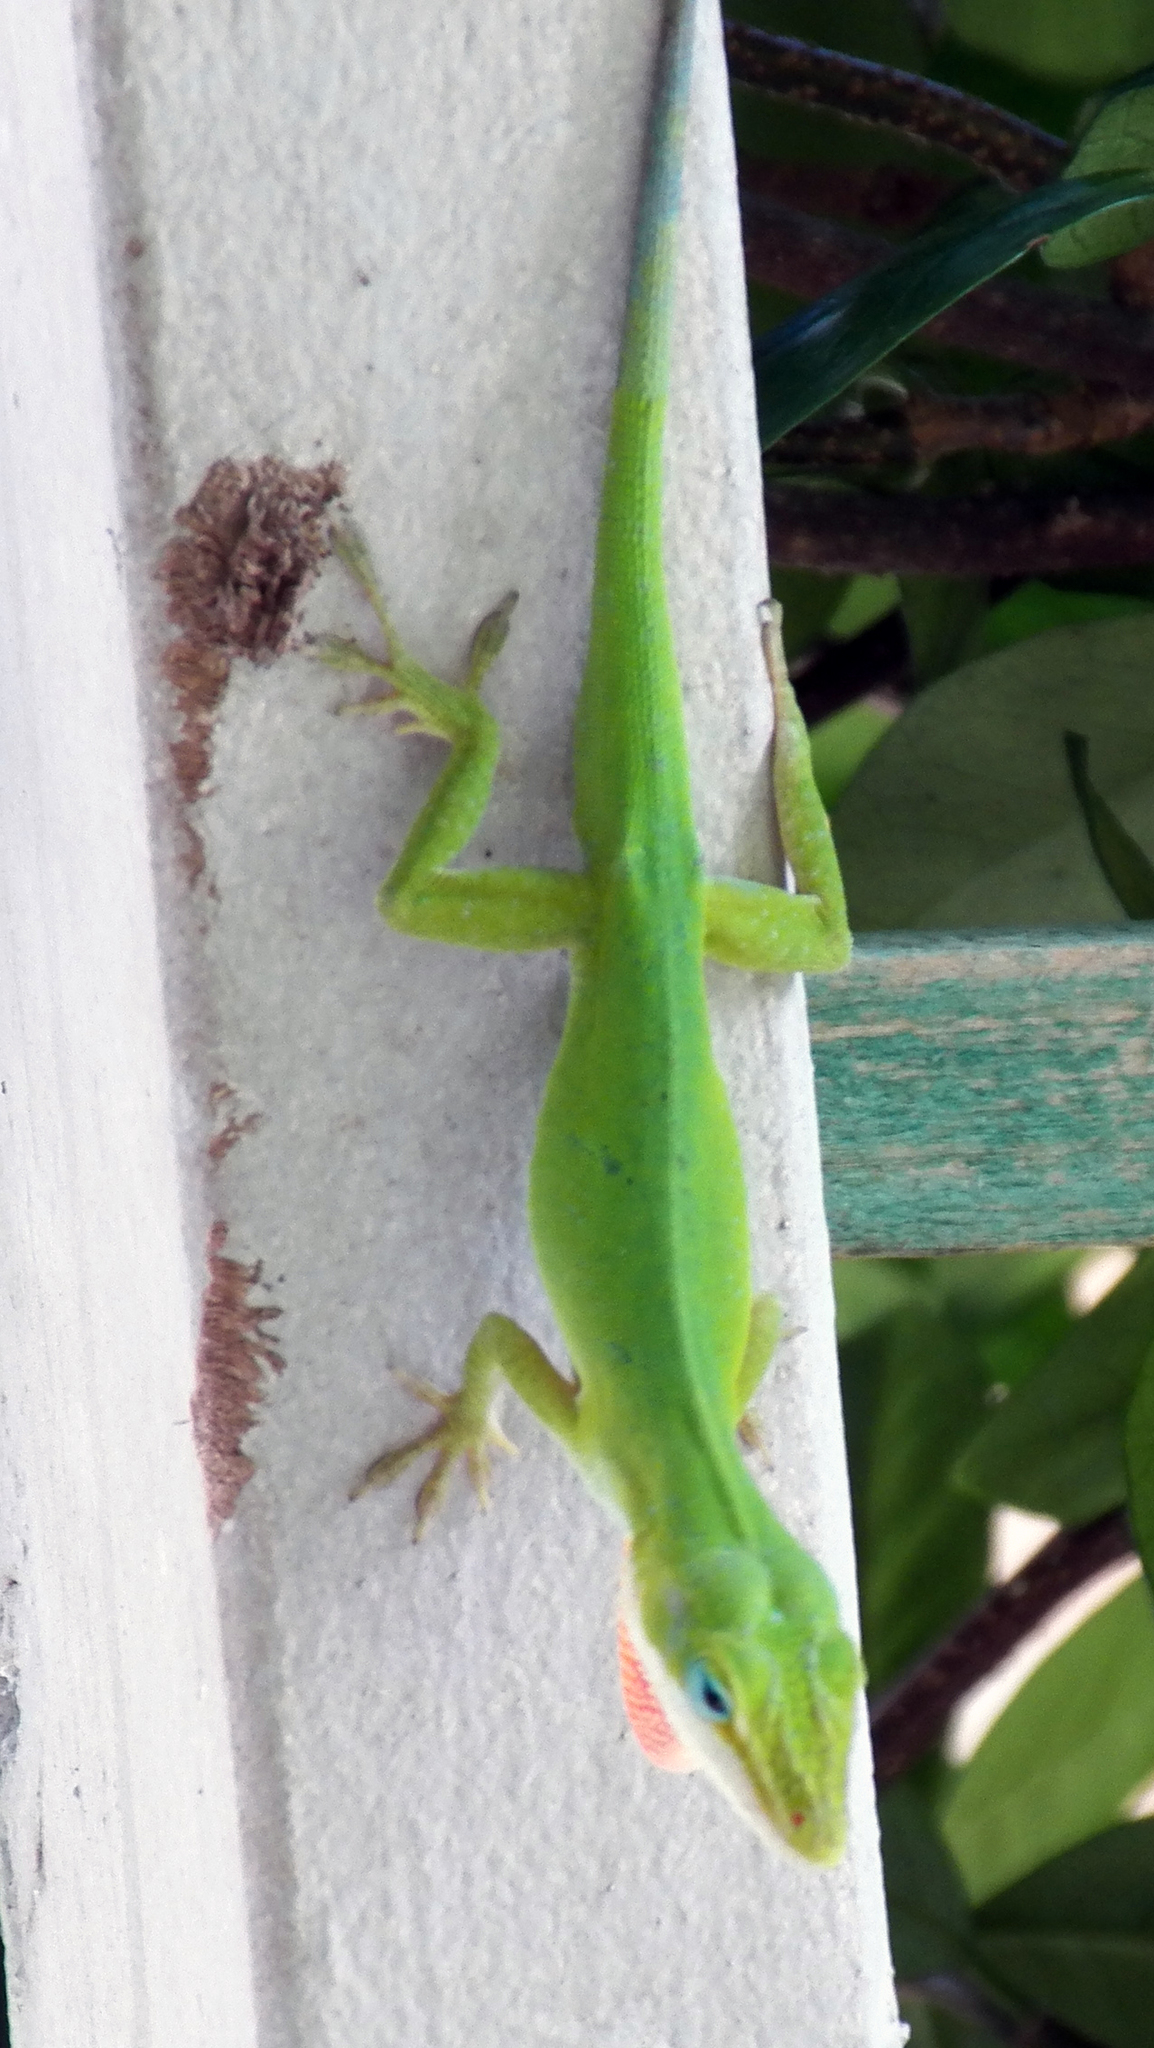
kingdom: Animalia
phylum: Chordata
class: Squamata
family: Dactyloidae
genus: Anolis
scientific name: Anolis carolinensis
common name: Green anole
